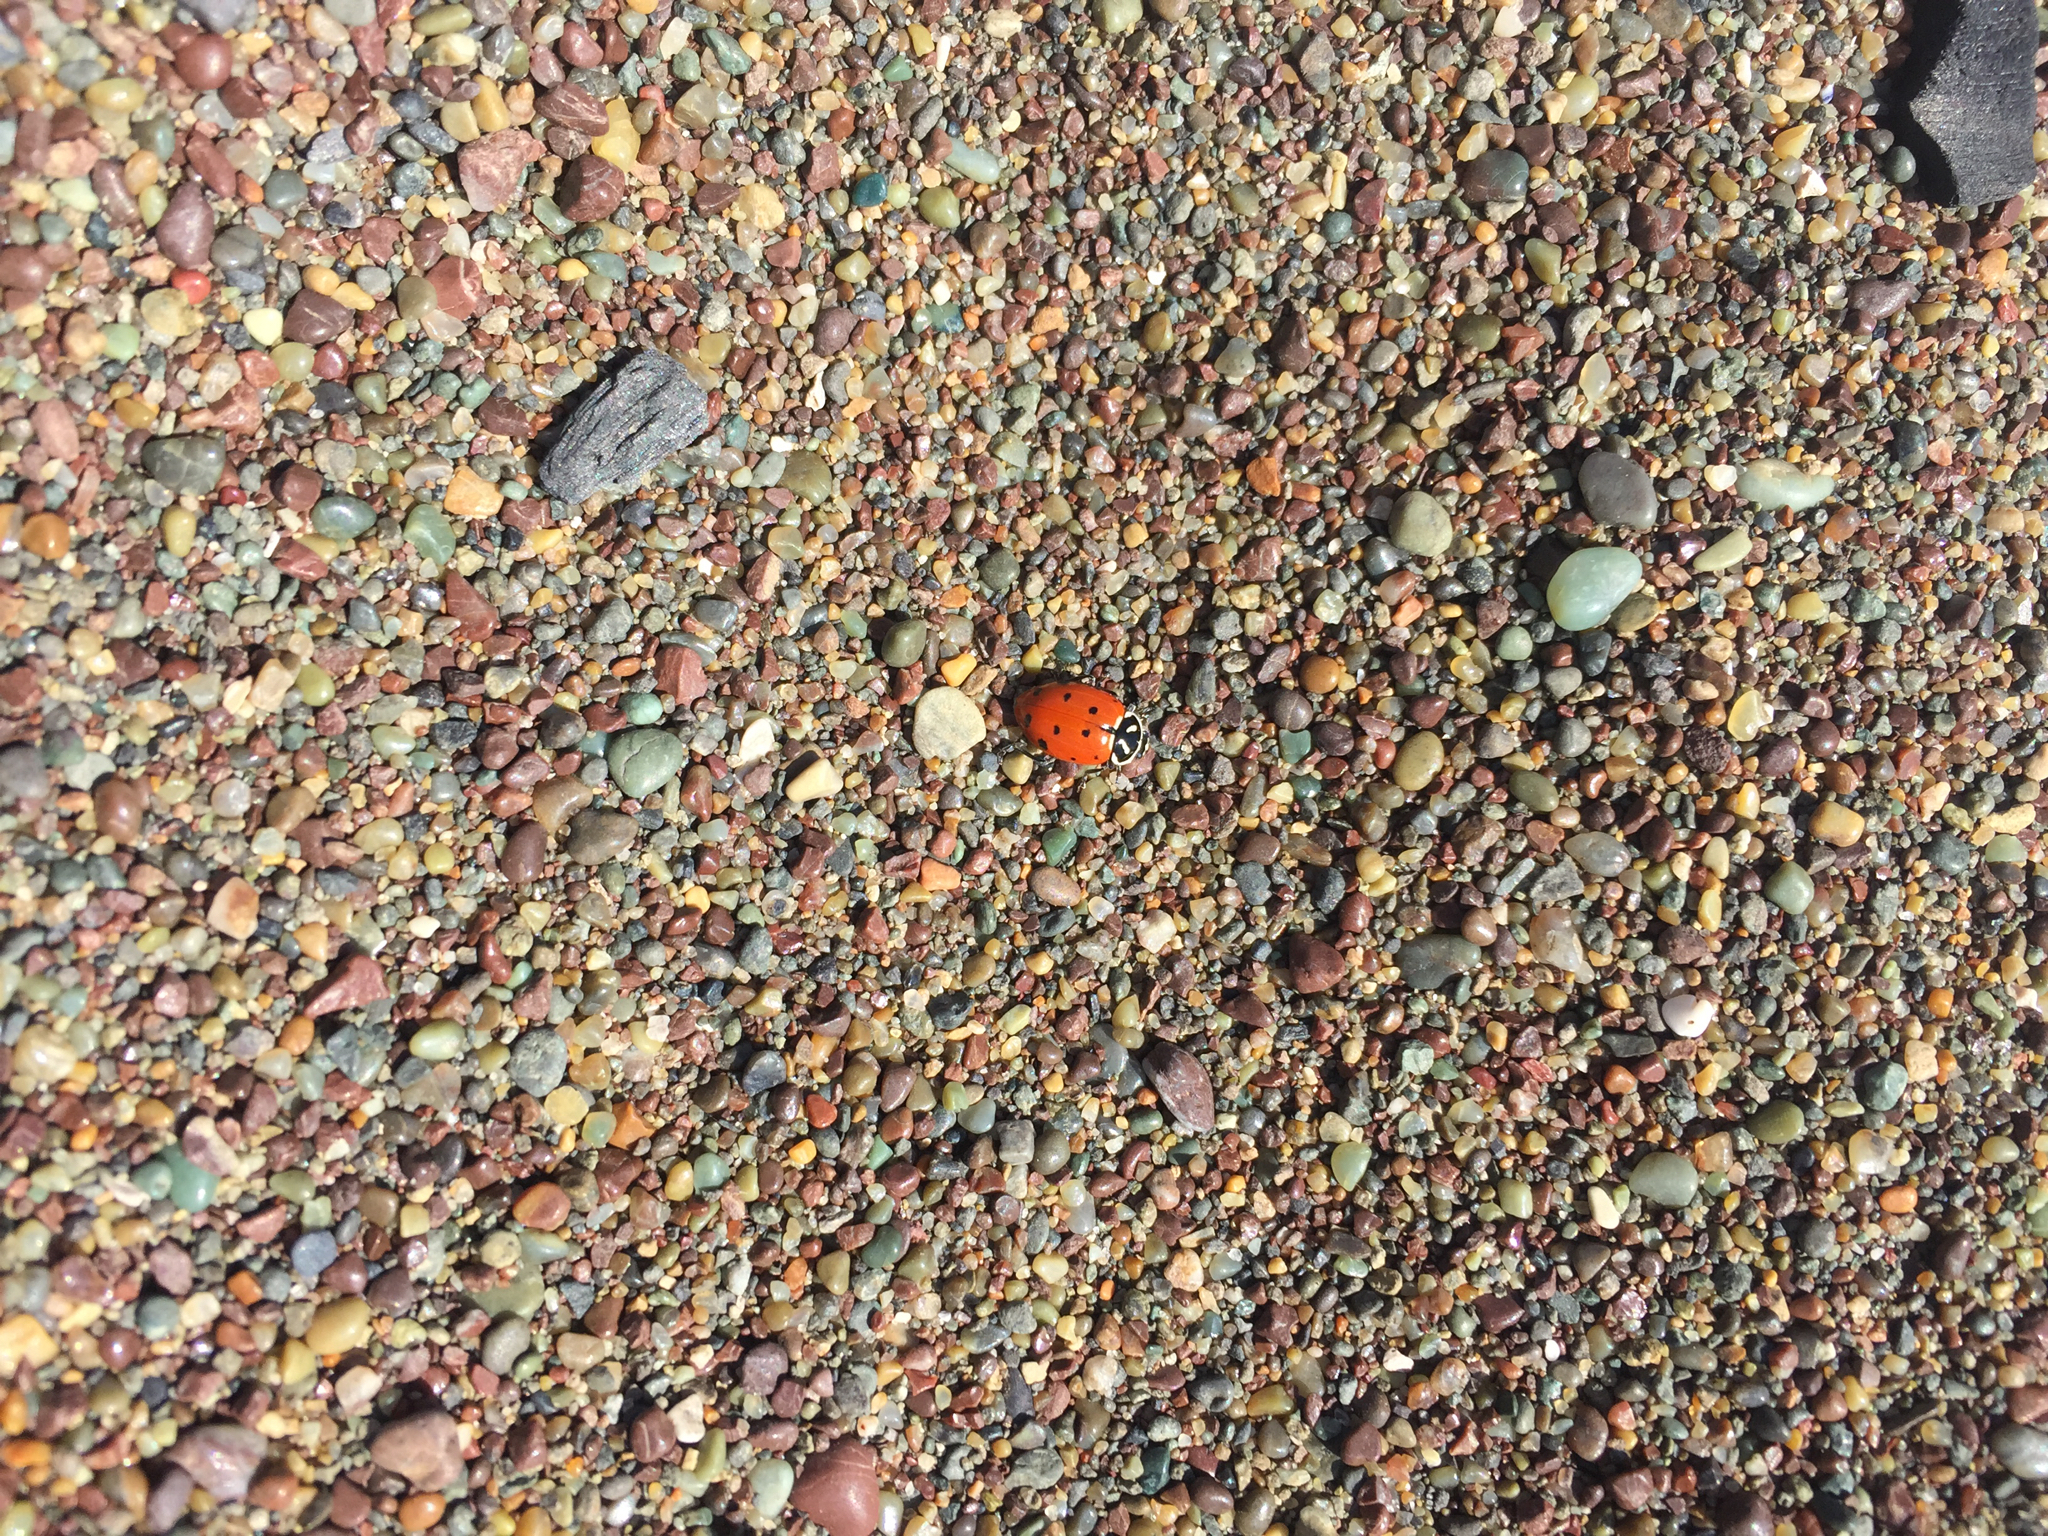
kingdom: Animalia
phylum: Arthropoda
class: Insecta
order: Coleoptera
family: Coccinellidae
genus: Hippodamia
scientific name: Hippodamia convergens
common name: Convergent lady beetle
